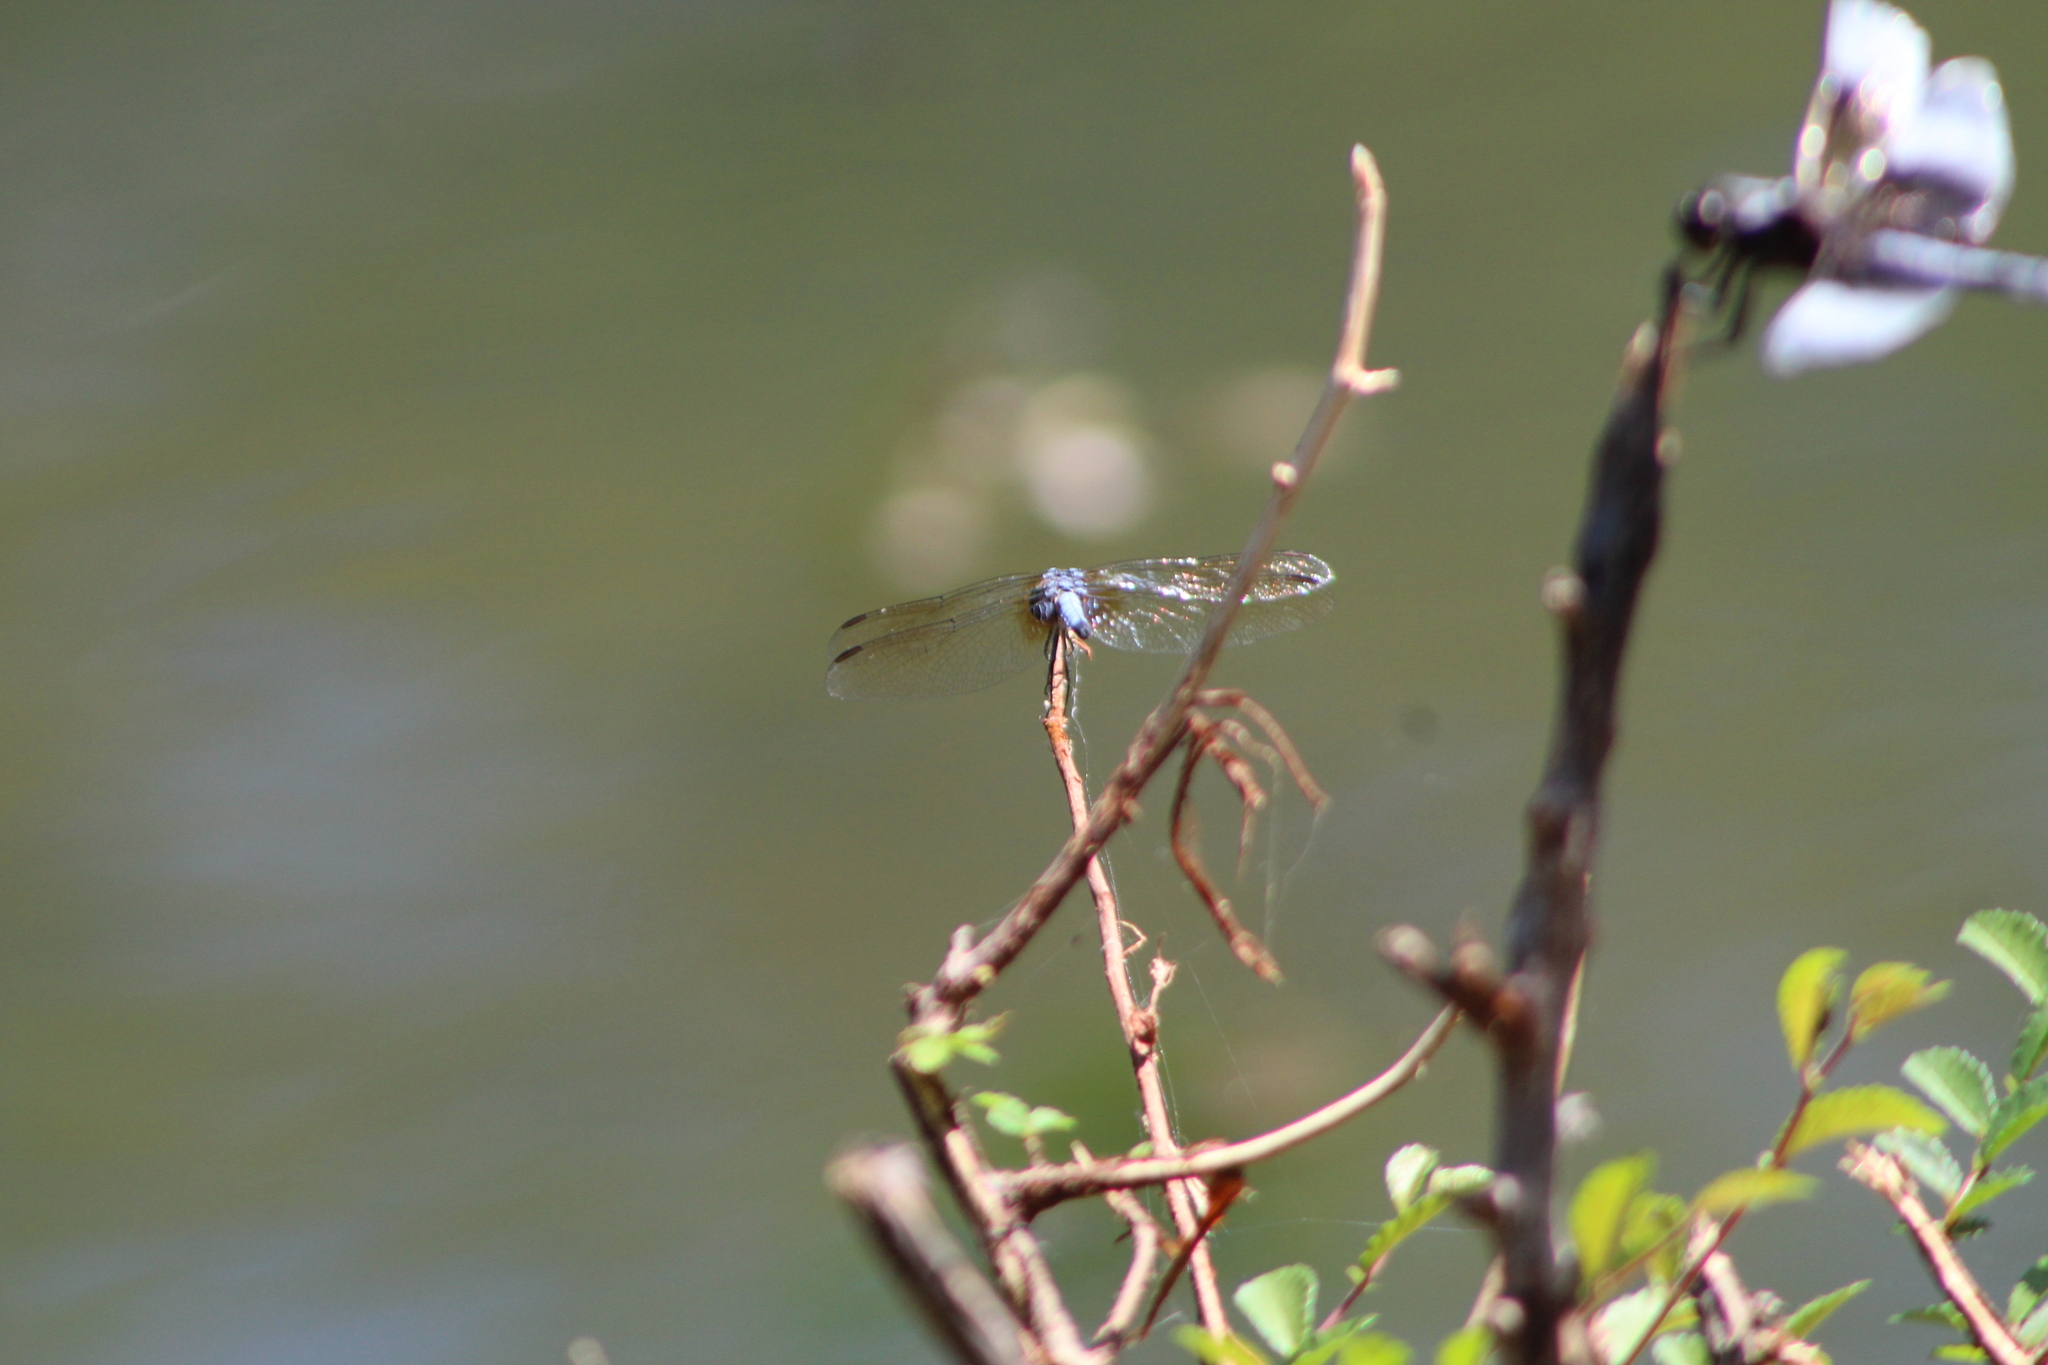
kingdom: Animalia
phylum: Arthropoda
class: Insecta
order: Odonata
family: Libellulidae
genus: Pachydiplax
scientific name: Pachydiplax longipennis
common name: Blue dasher
